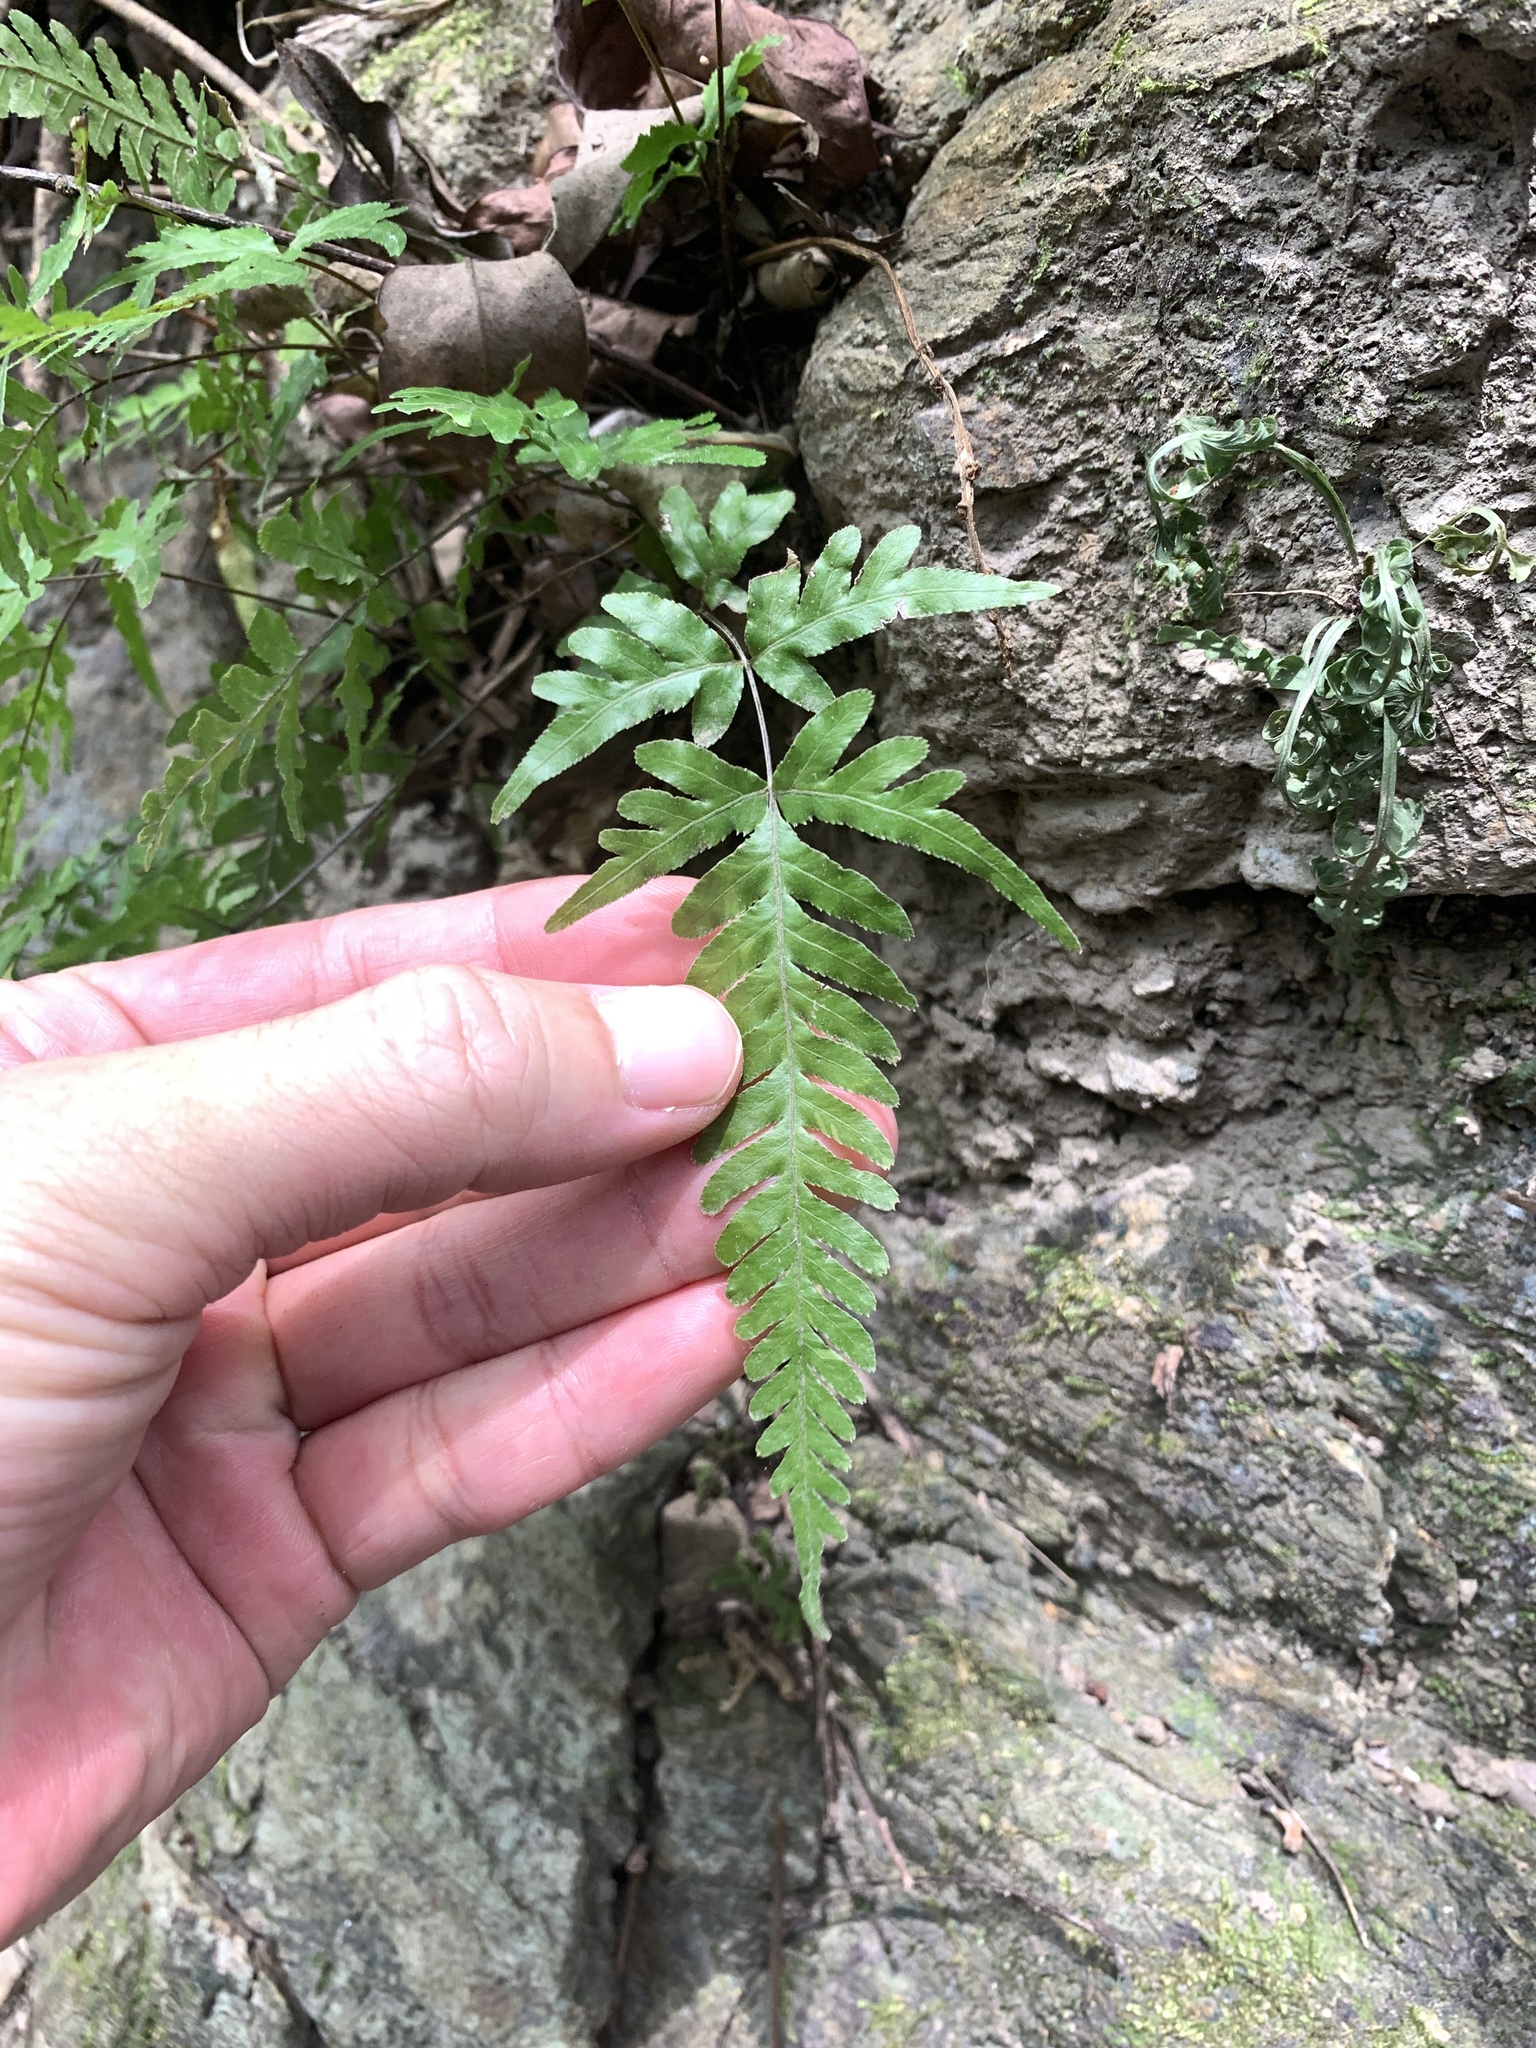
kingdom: Plantae
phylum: Tracheophyta
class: Polypodiopsida
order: Polypodiales
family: Pteridaceae
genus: Pteris
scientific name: Pteris dispar
